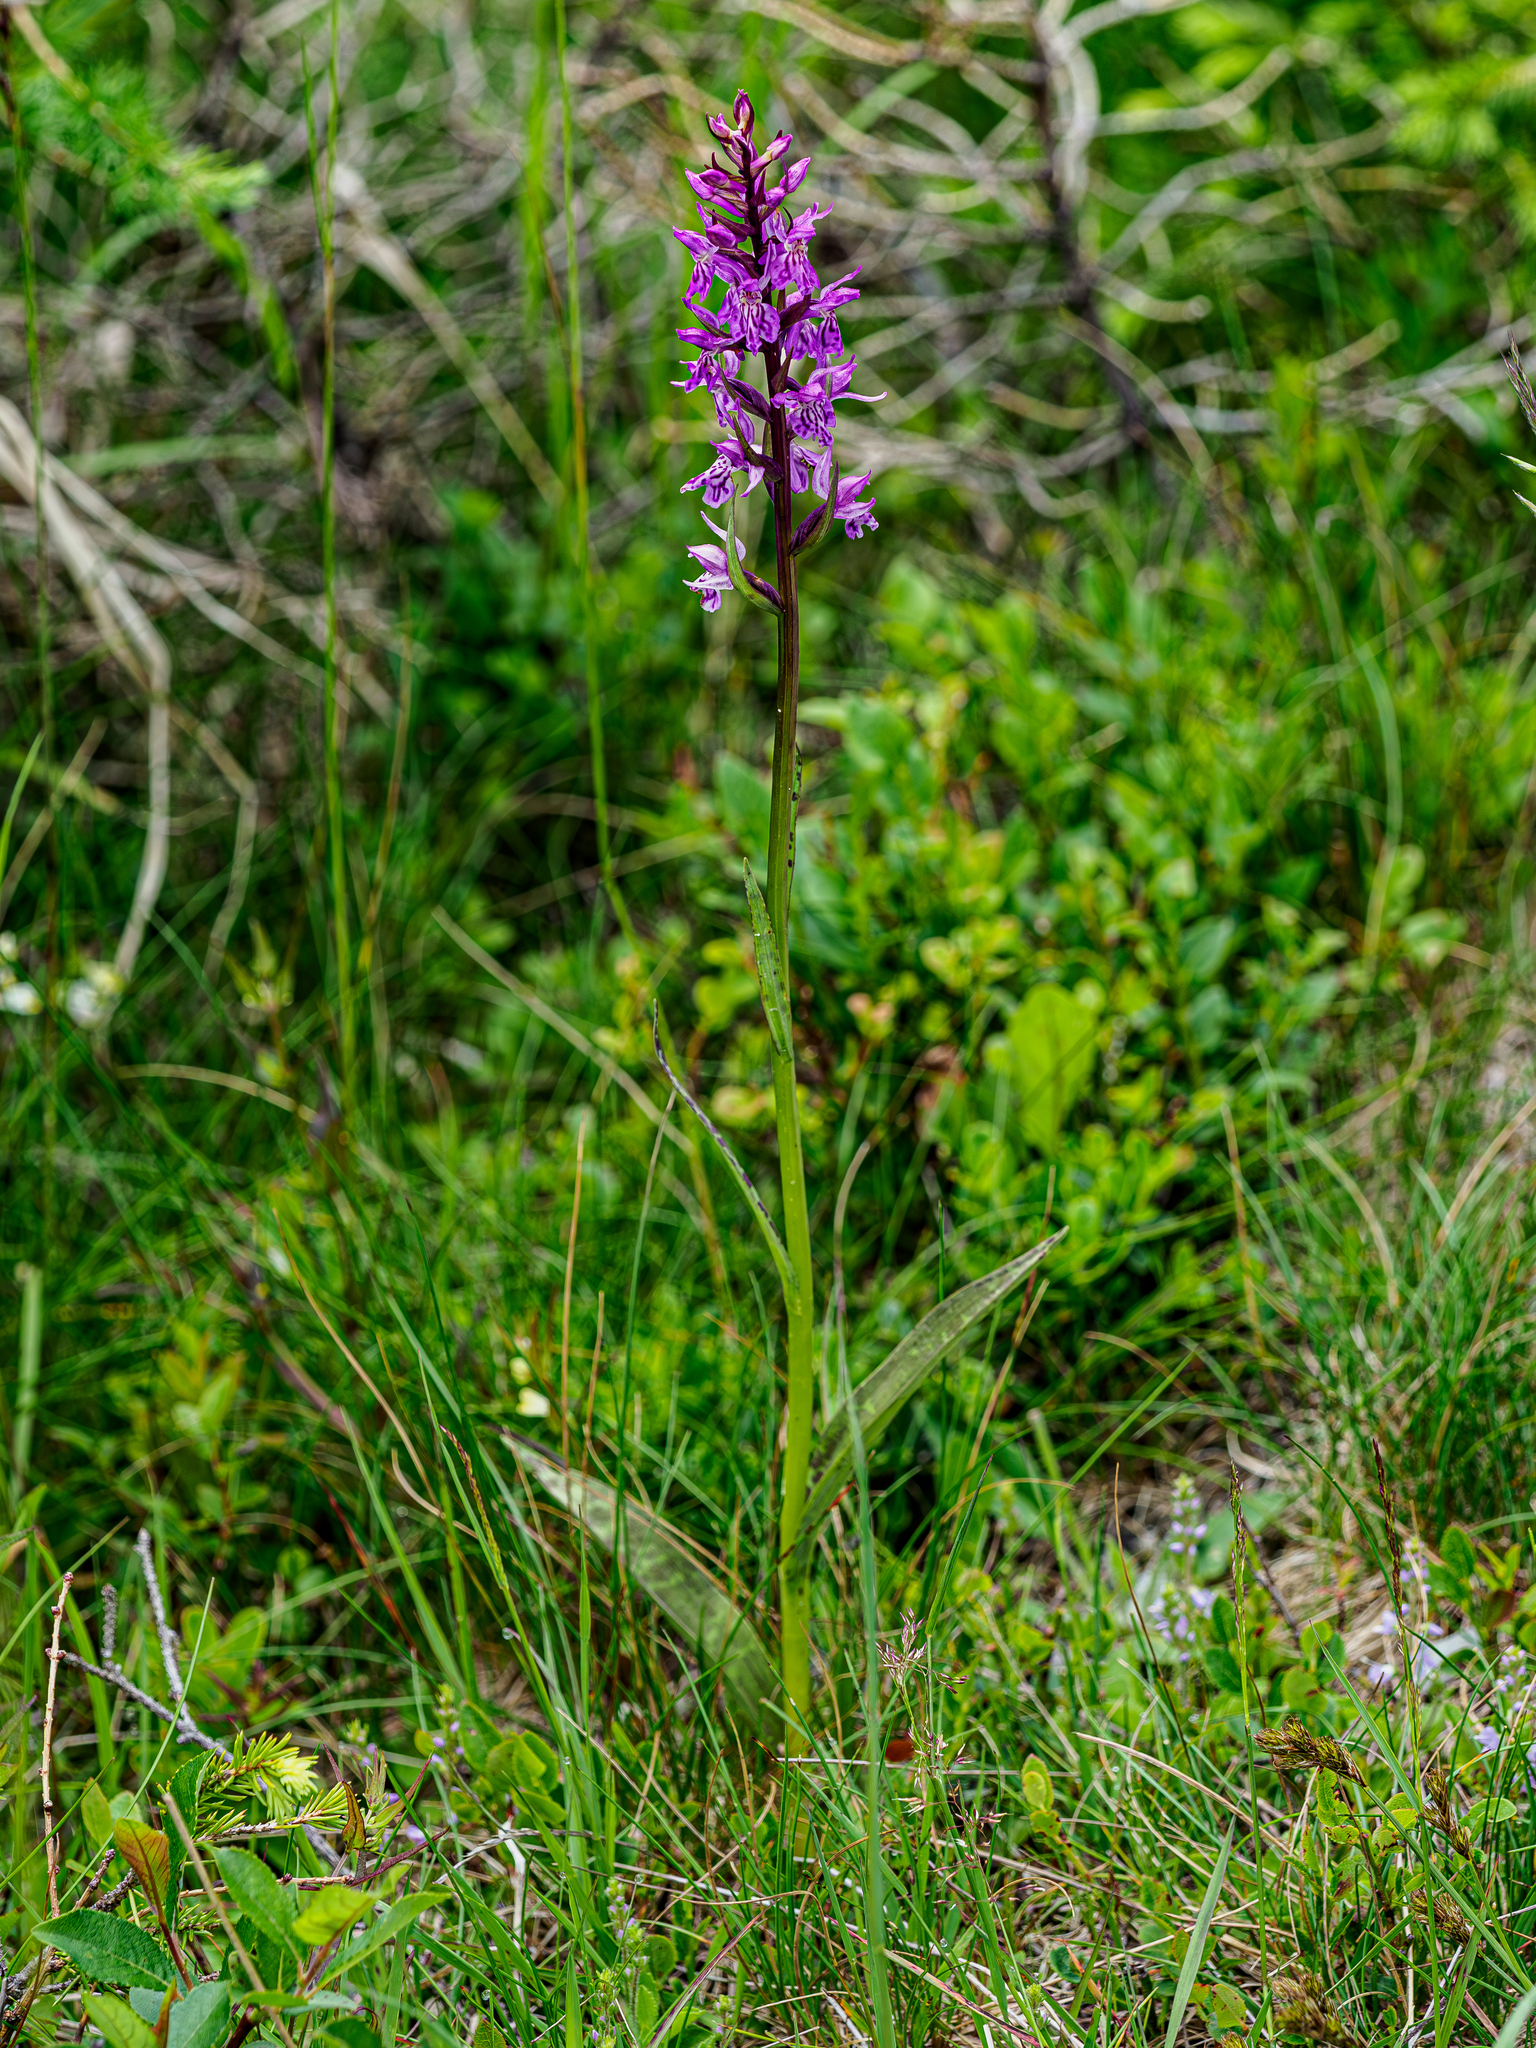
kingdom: Plantae
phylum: Tracheophyta
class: Liliopsida
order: Asparagales
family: Orchidaceae
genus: Dactylorhiza
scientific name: Dactylorhiza maculata
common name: Heath spotted-orchid
